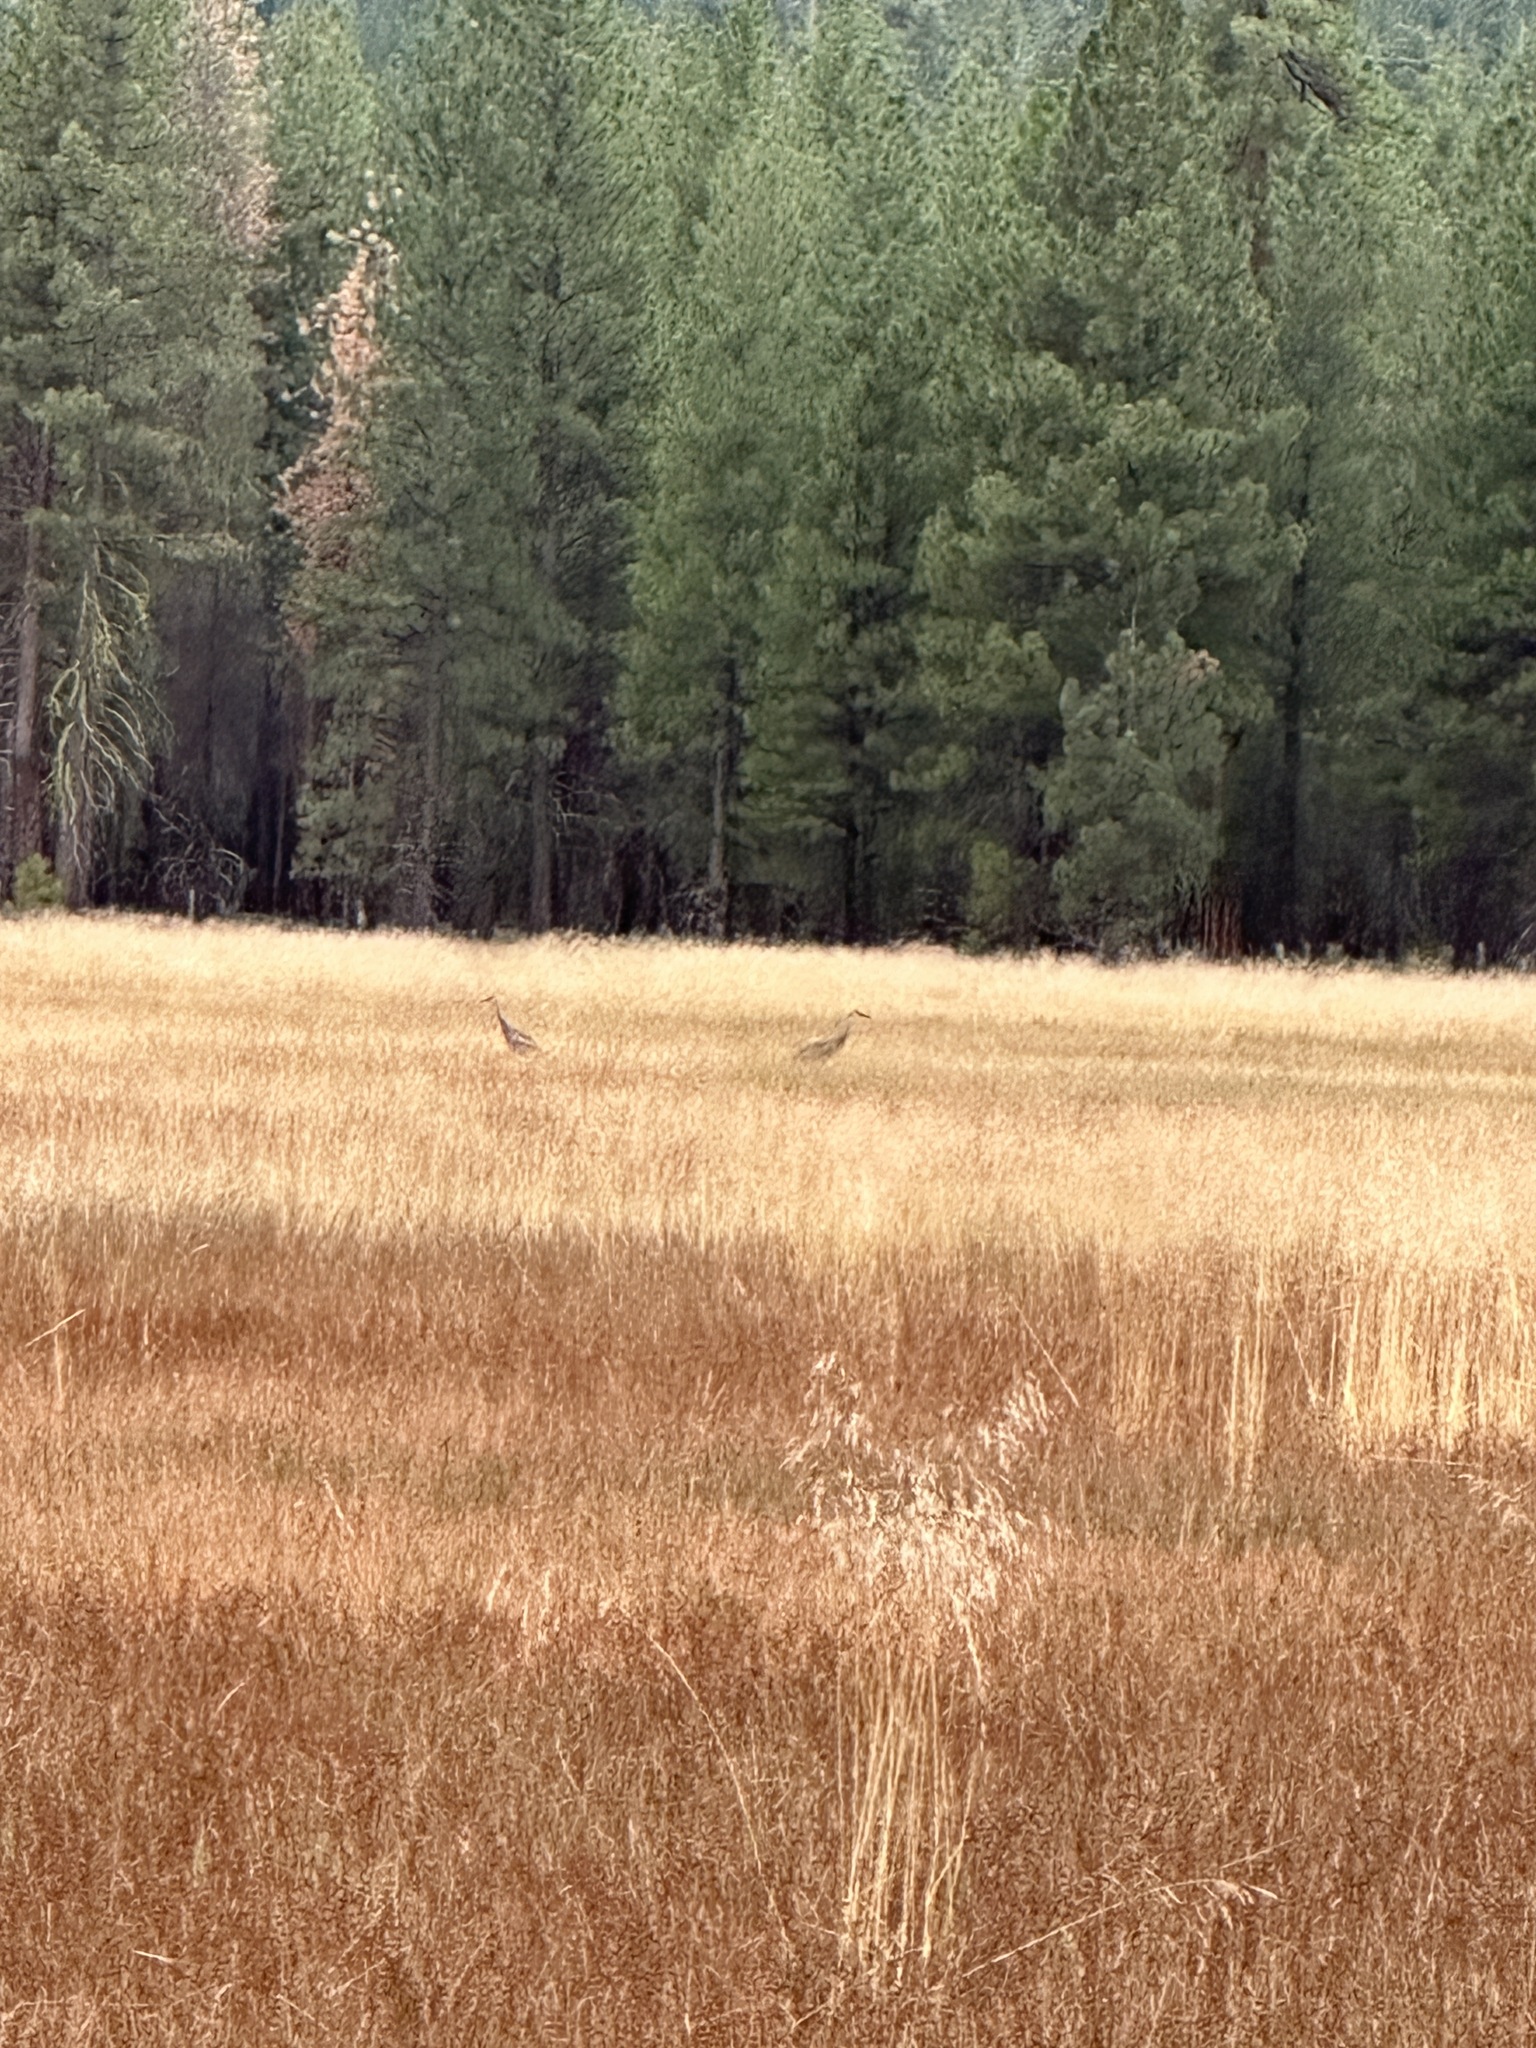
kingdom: Animalia
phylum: Chordata
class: Aves
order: Gruiformes
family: Gruidae
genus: Grus
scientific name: Grus canadensis
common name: Sandhill crane
